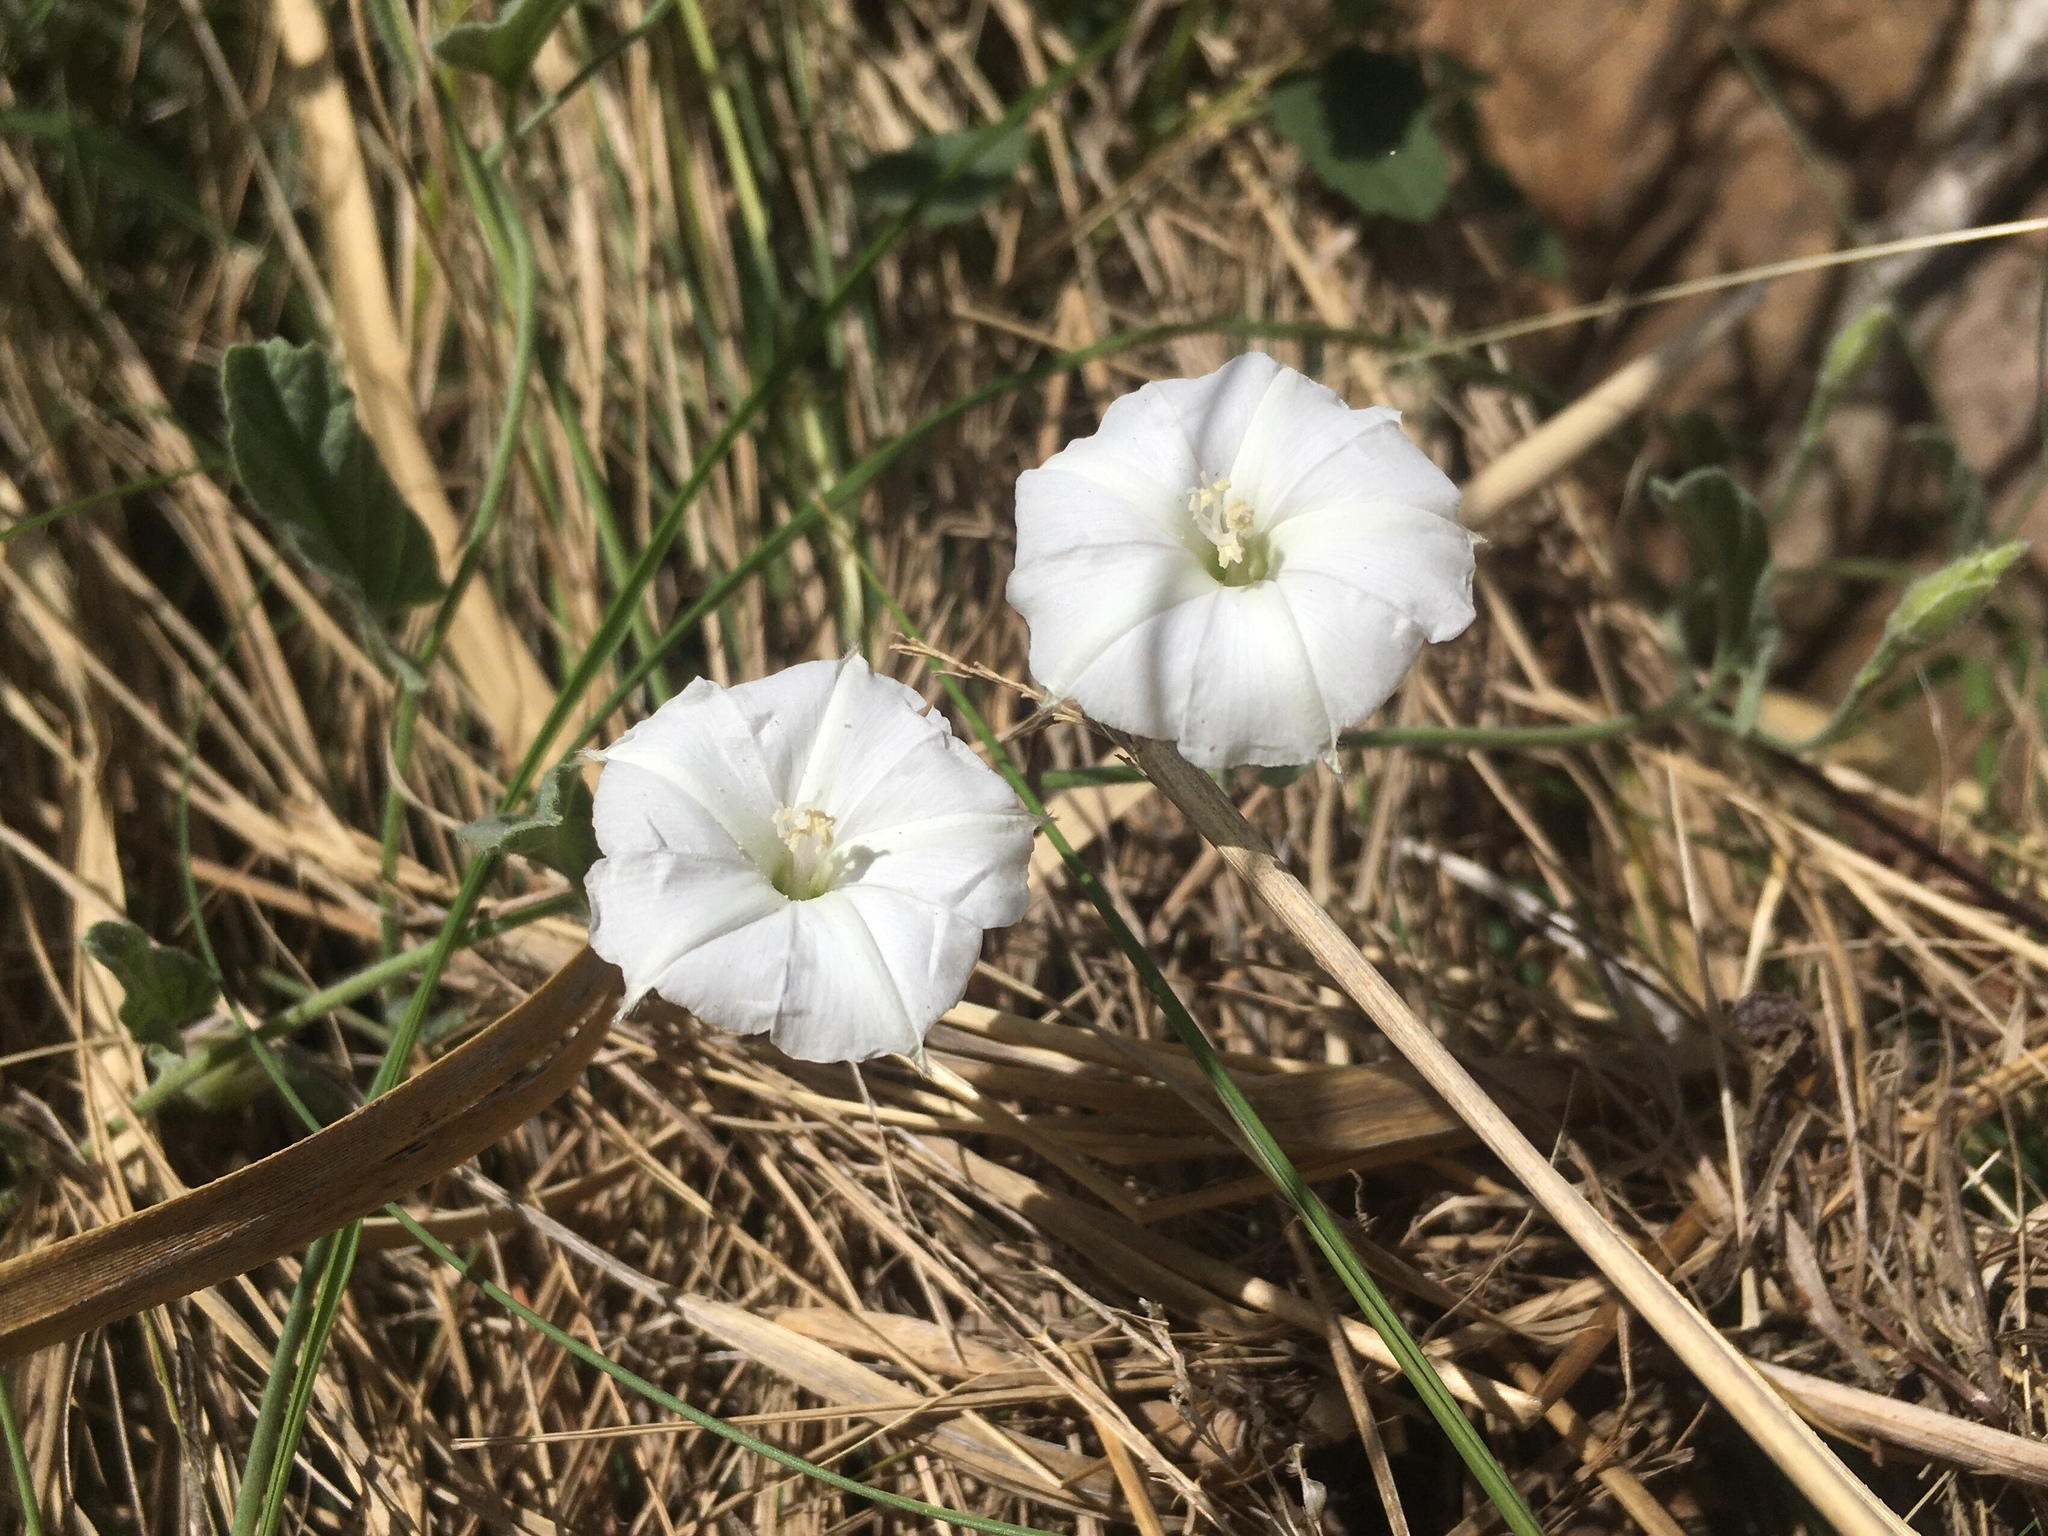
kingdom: Plantae
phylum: Tracheophyta
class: Magnoliopsida
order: Solanales
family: Convolvulaceae
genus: Convolvulus
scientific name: Convolvulus hermanniae
